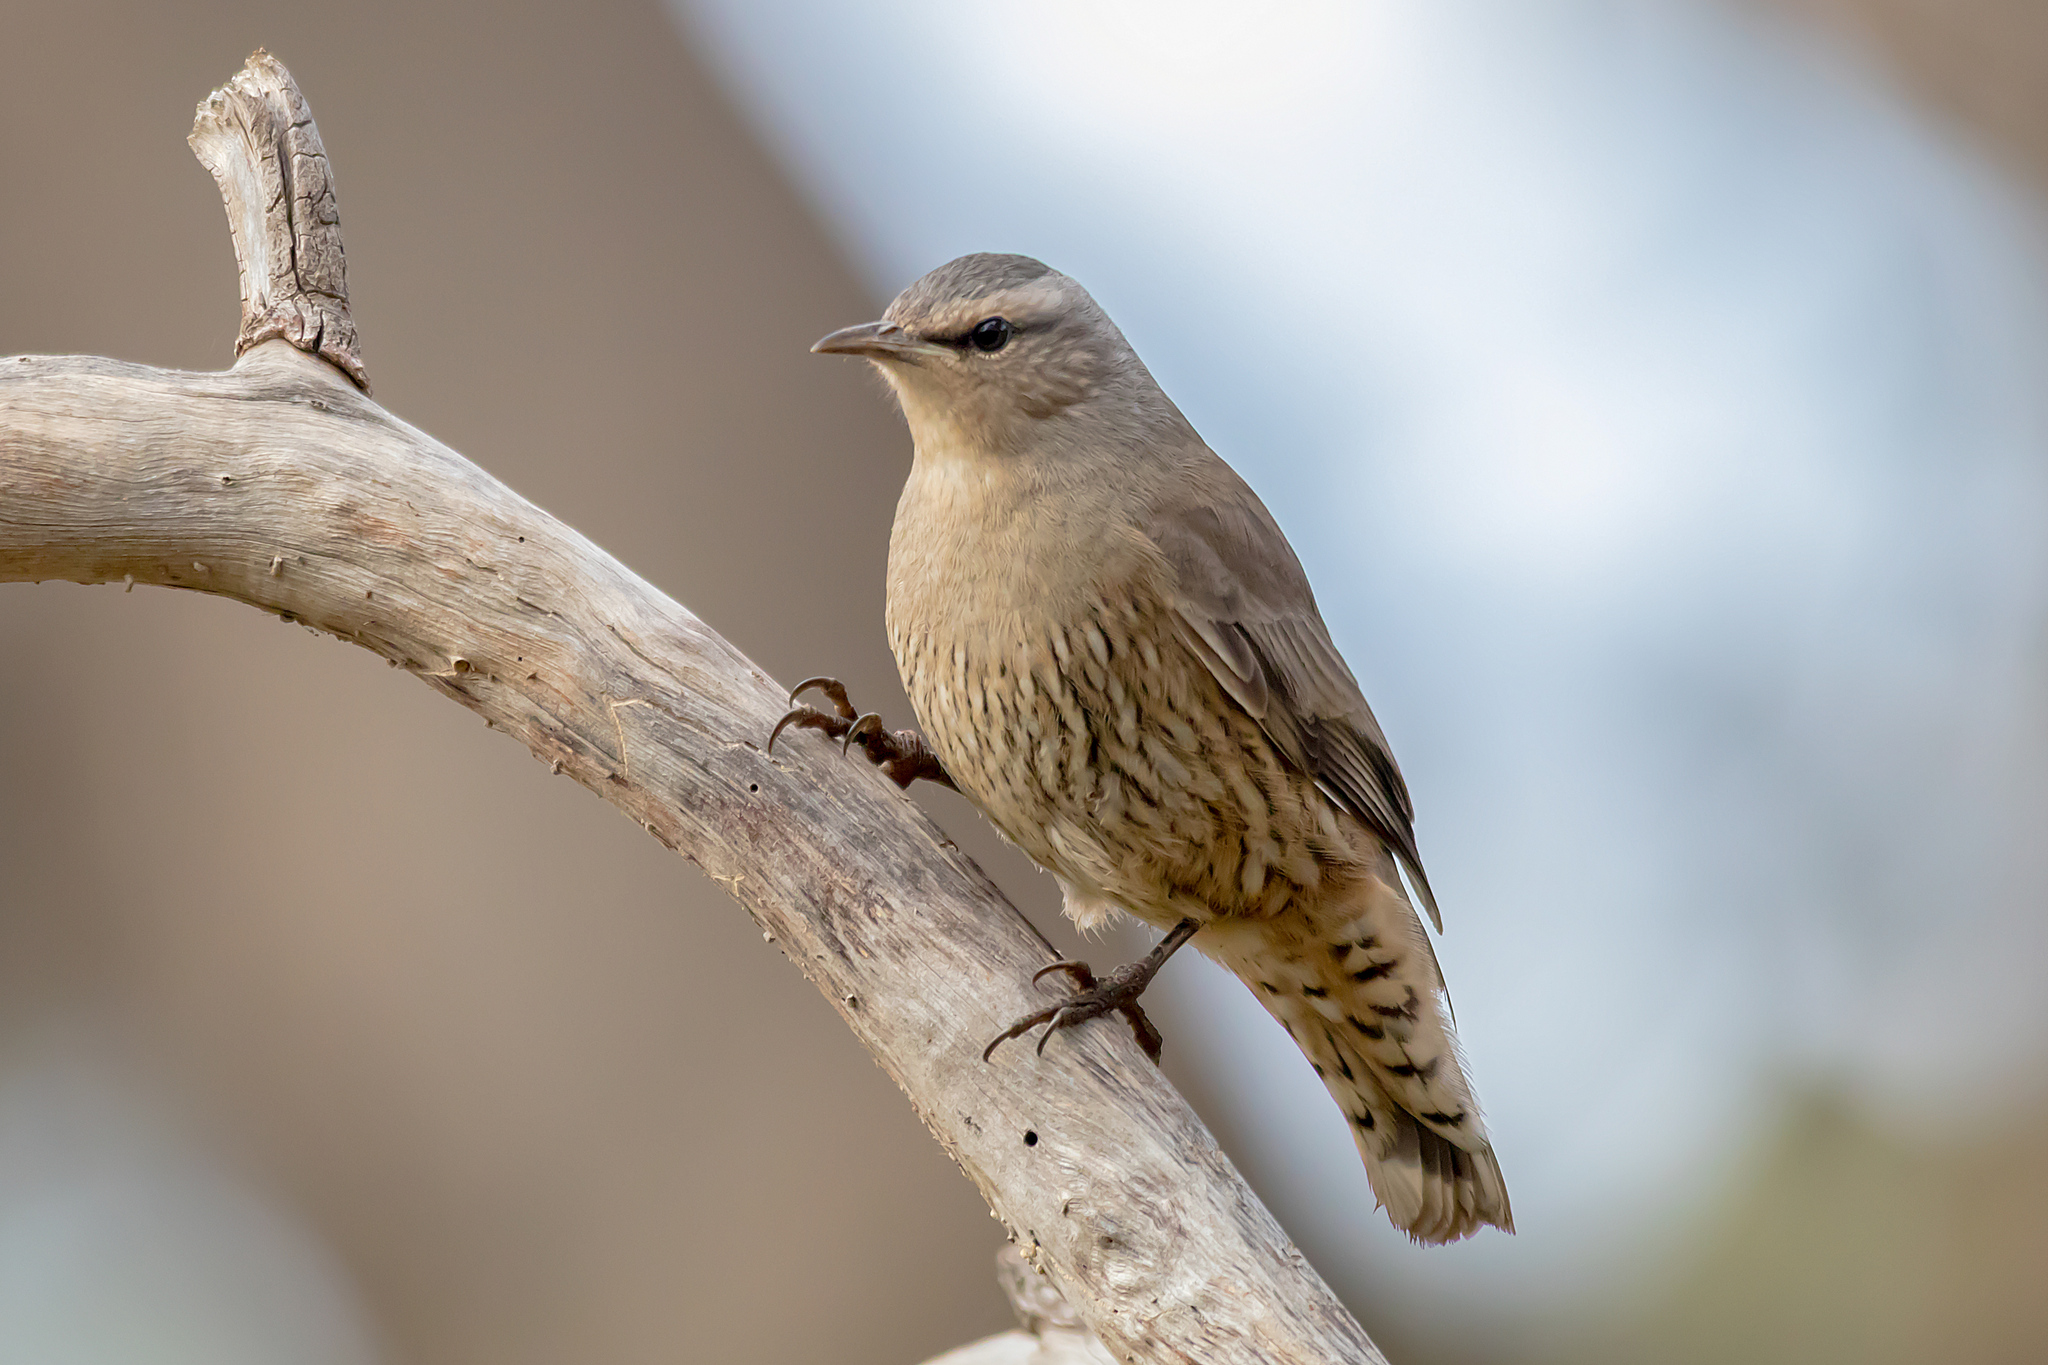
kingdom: Animalia
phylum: Chordata
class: Aves
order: Passeriformes
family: Climacteridae
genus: Climacteris
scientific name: Climacteris picumnus
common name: Brown treecreeper
